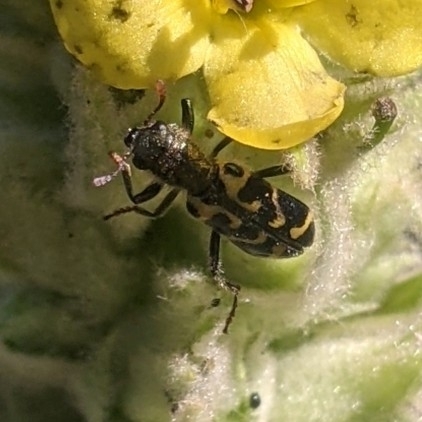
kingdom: Animalia
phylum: Arthropoda
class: Insecta
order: Coleoptera
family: Cleridae
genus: Trichodes
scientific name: Trichodes ornatus
